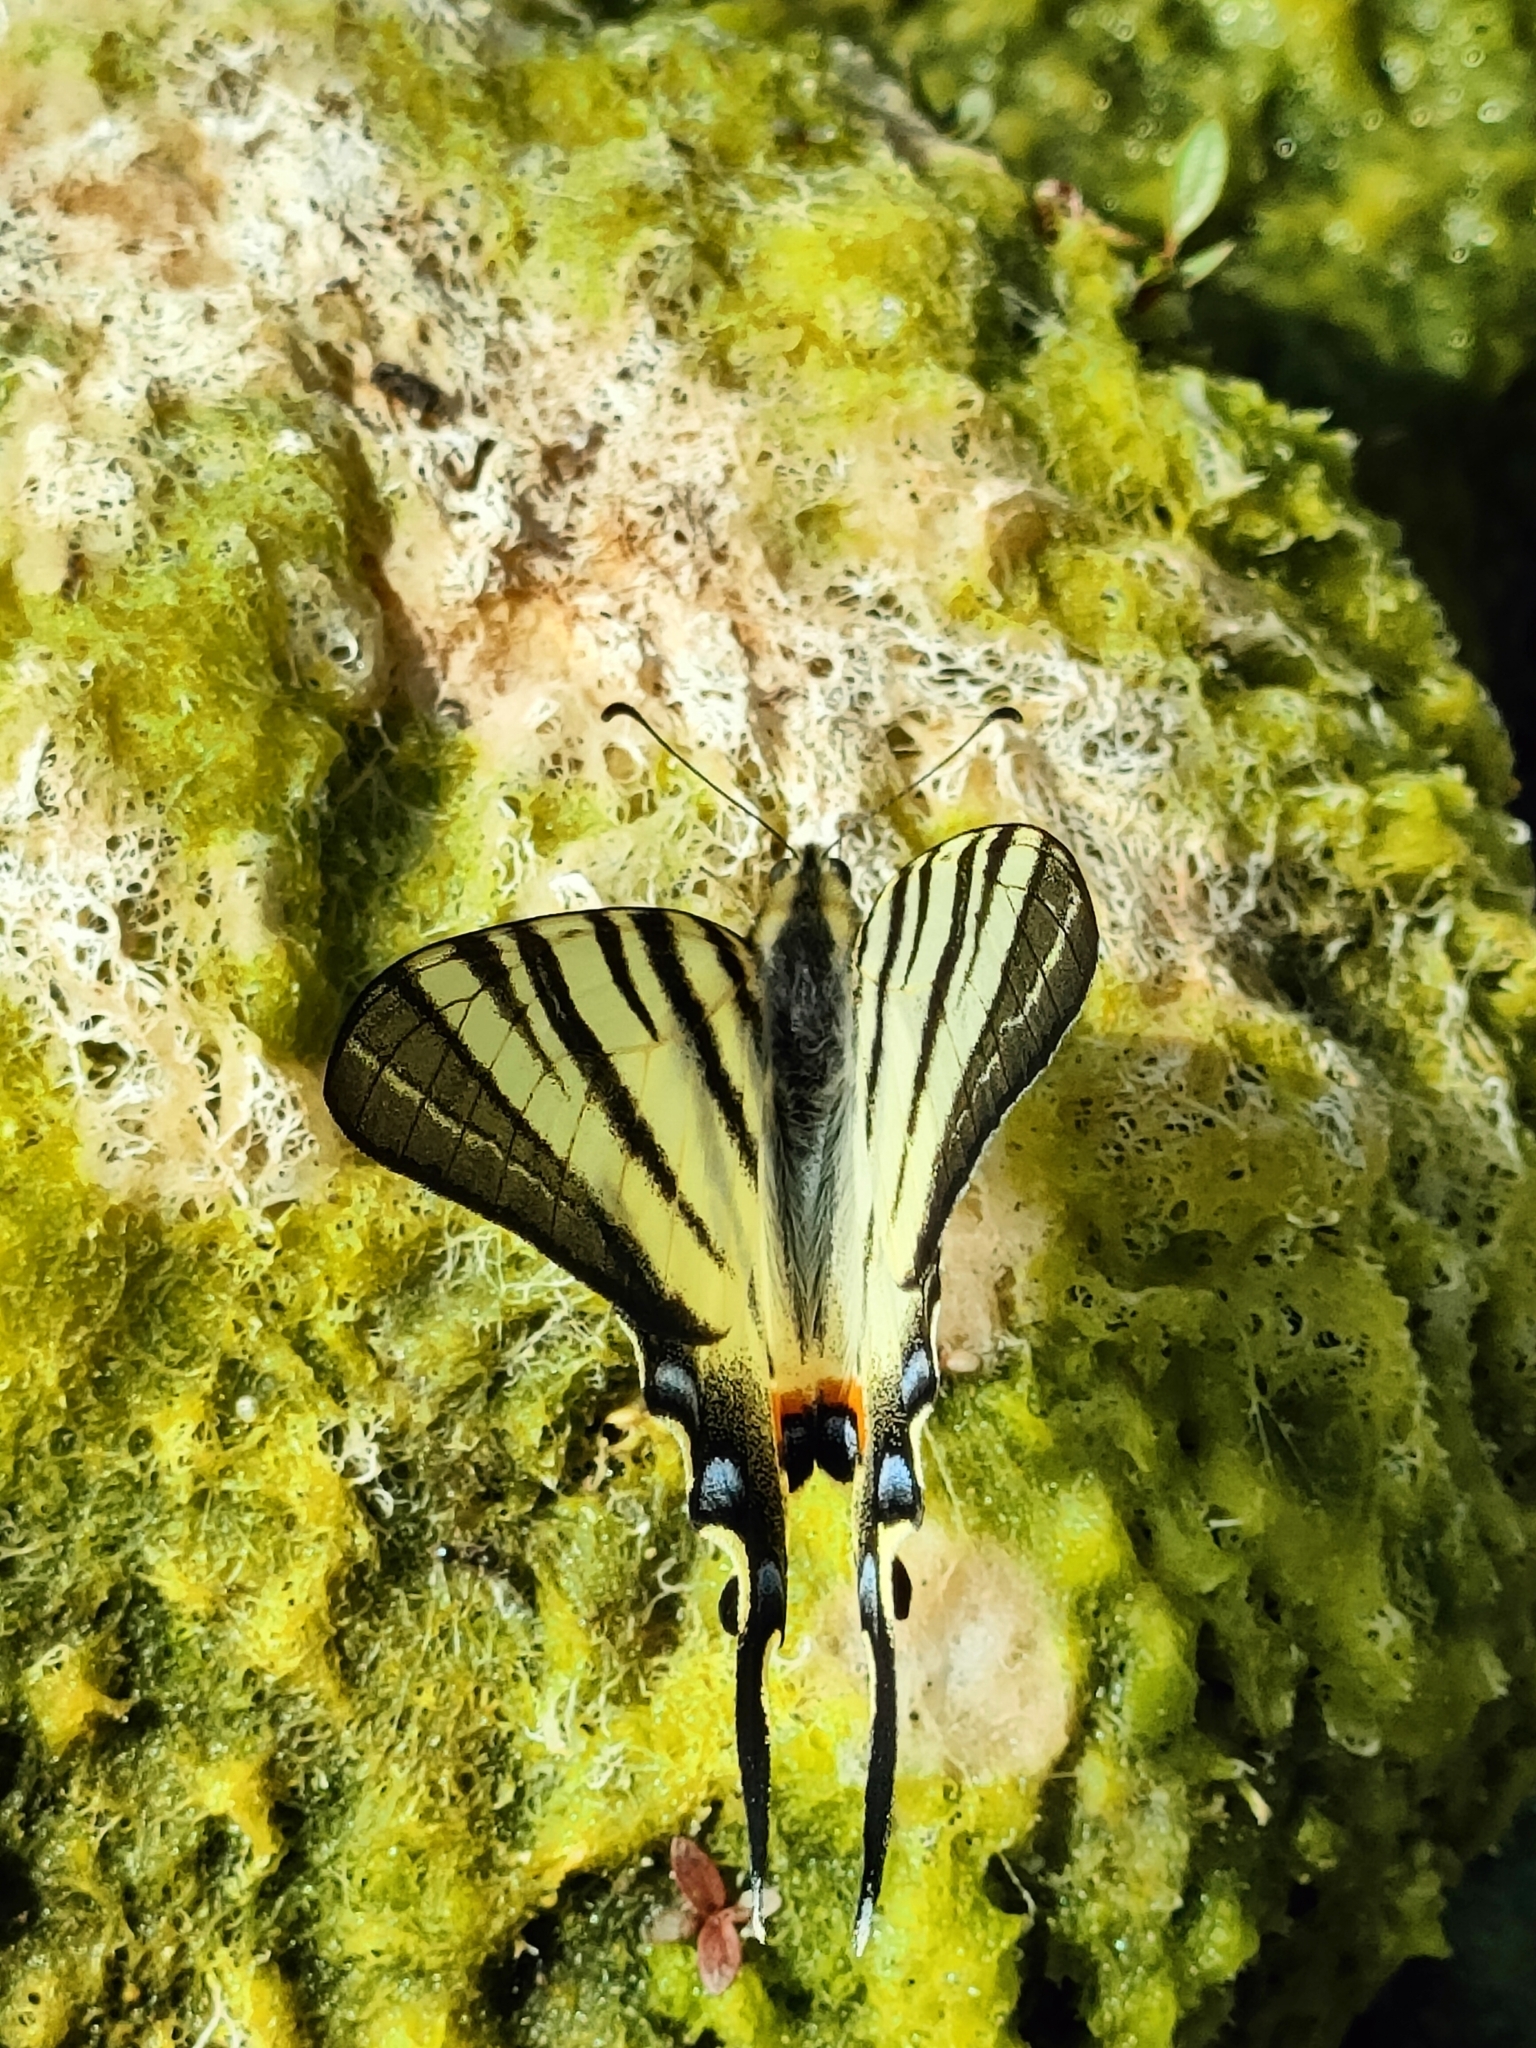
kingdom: Animalia
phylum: Arthropoda
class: Insecta
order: Lepidoptera
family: Papilionidae
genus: Iphiclides
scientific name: Iphiclides podalirius
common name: Scarce swallowtail
